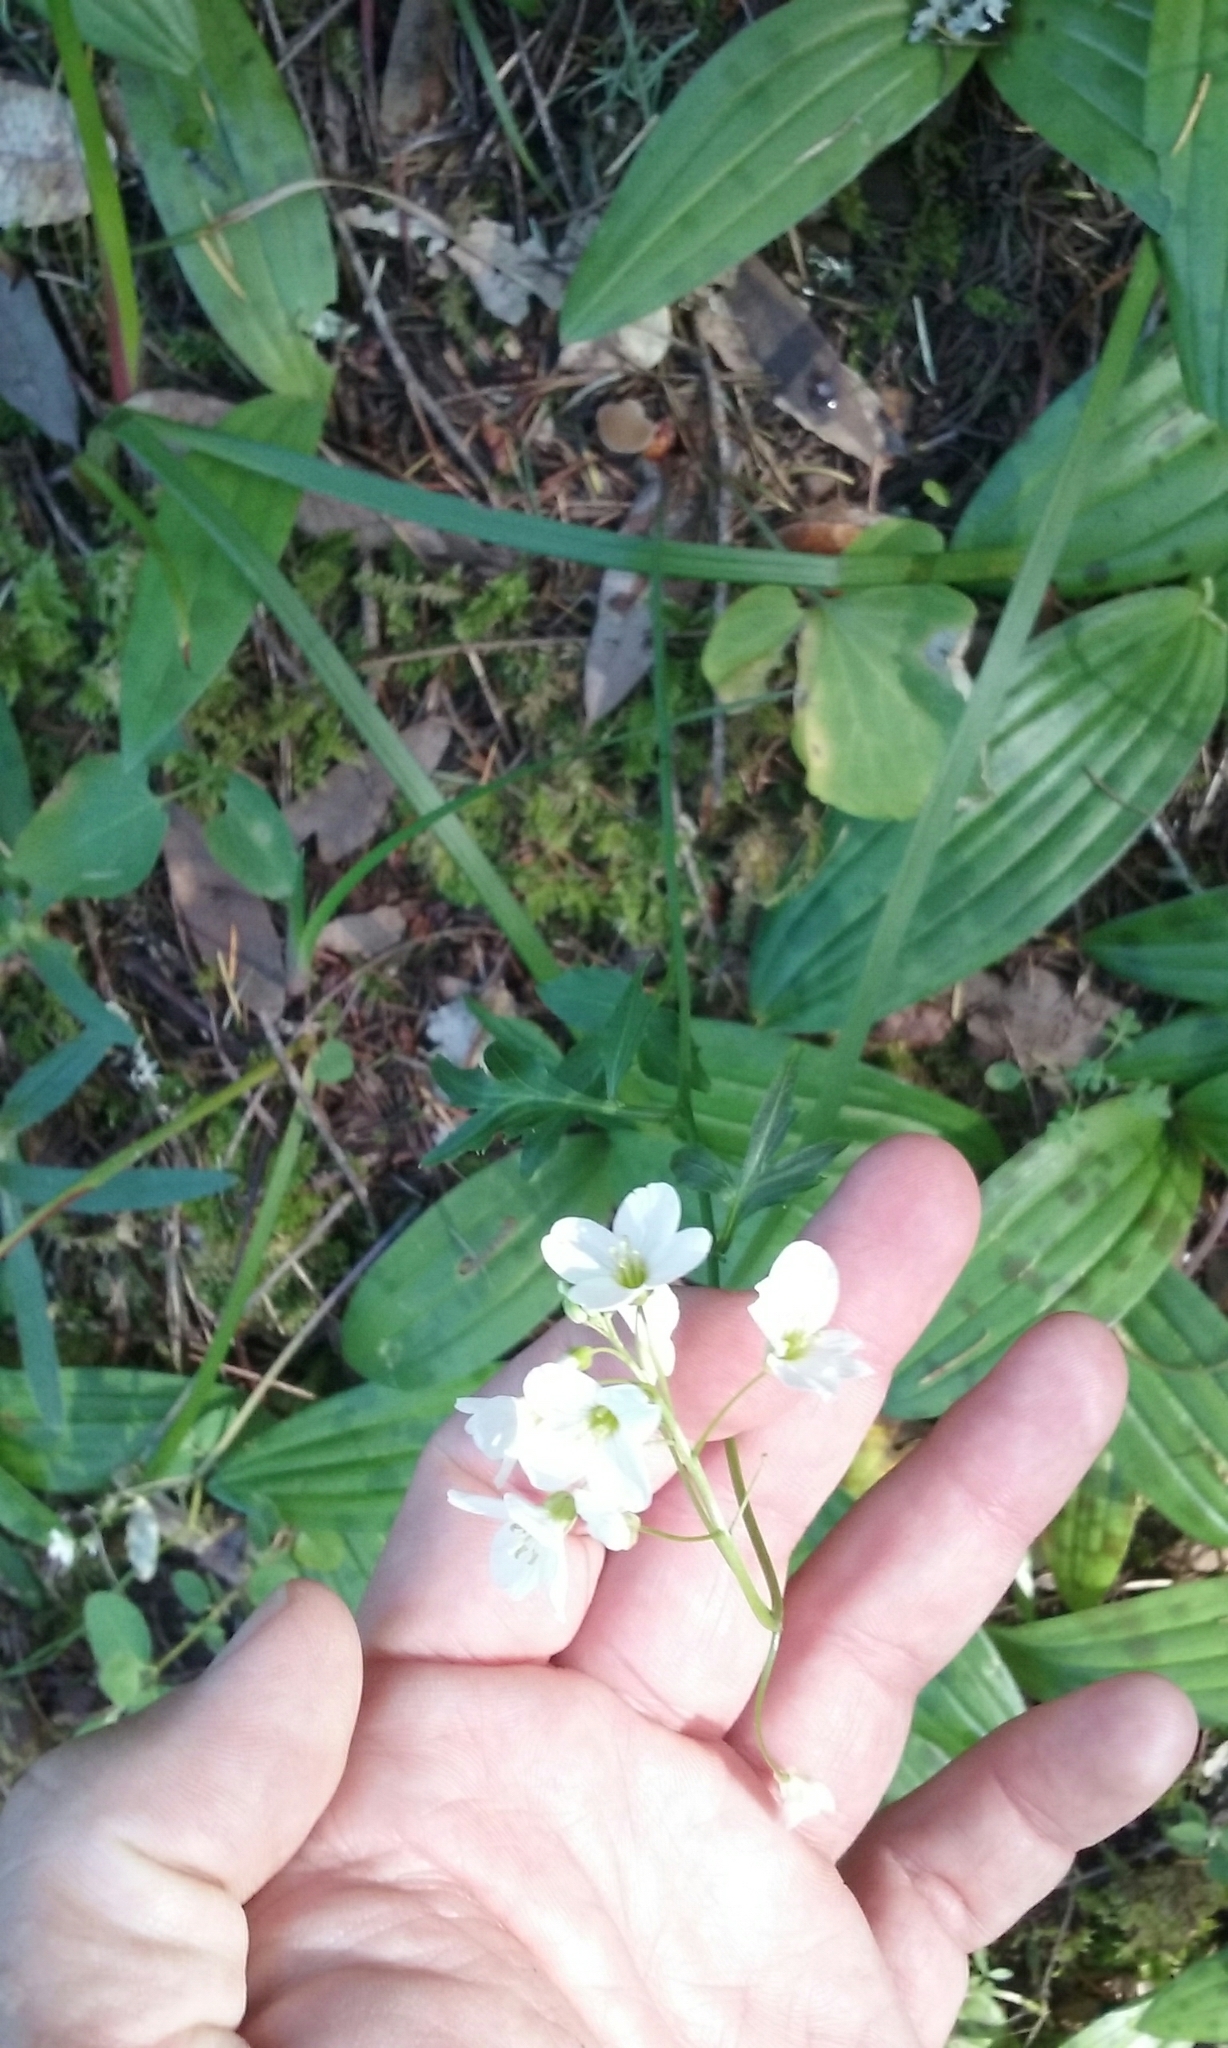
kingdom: Plantae
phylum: Tracheophyta
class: Magnoliopsida
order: Brassicales
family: Brassicaceae
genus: Cardamine
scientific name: Cardamine californica
